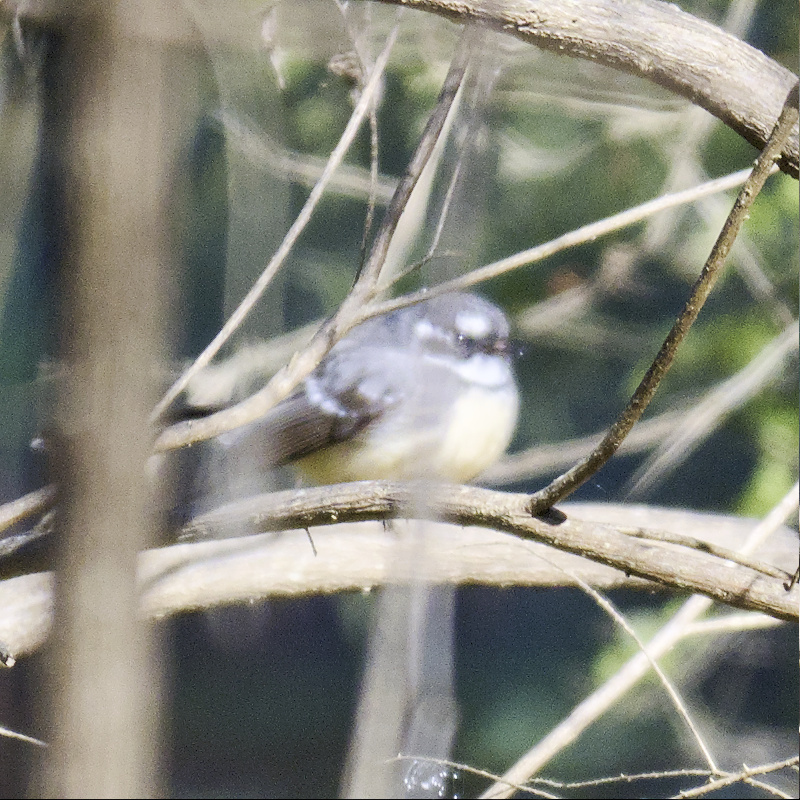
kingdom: Animalia
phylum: Chordata
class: Aves
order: Passeriformes
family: Rhipiduridae
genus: Rhipidura
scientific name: Rhipidura albiscapa
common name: Grey fantail
